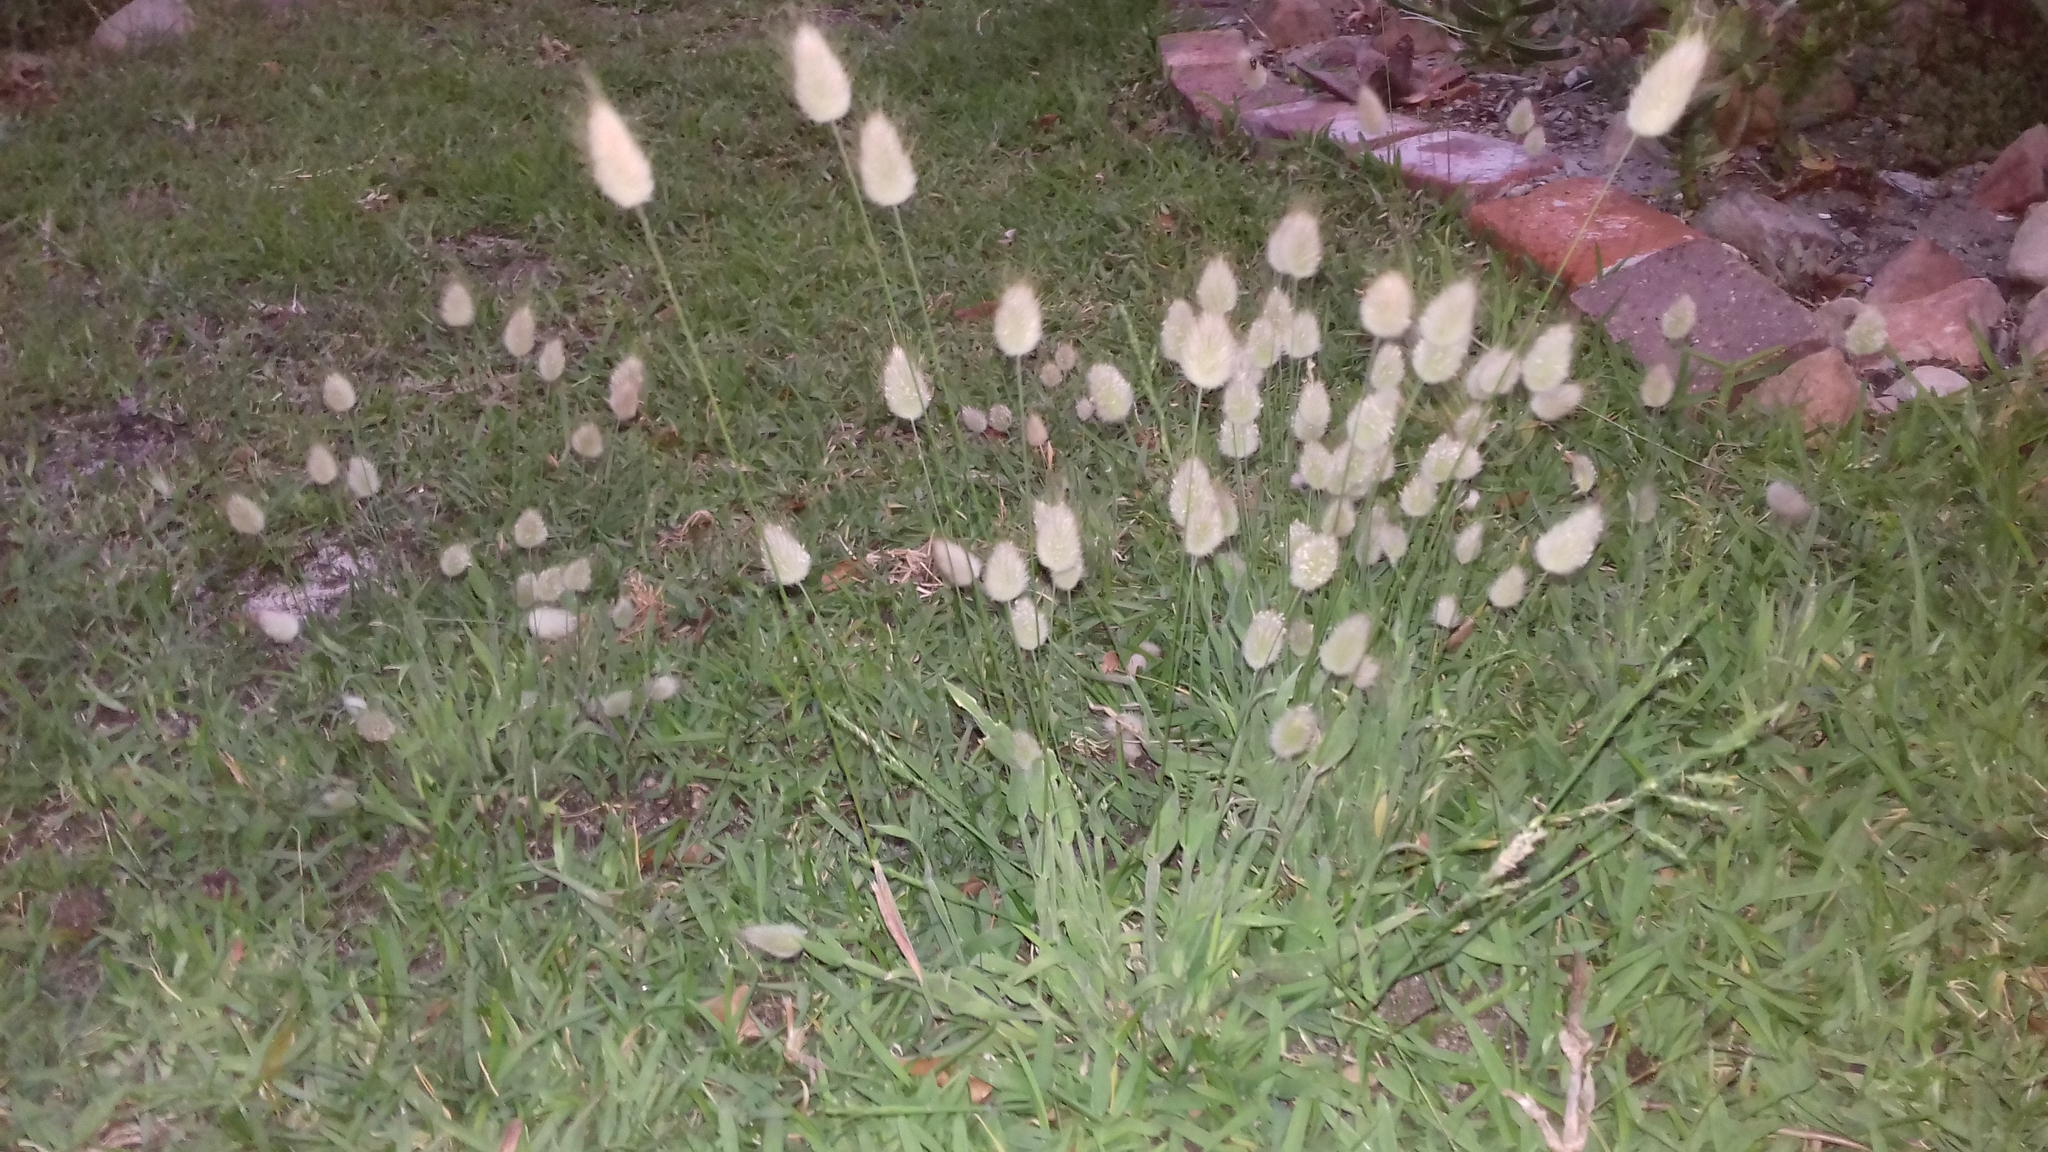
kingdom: Plantae
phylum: Tracheophyta
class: Liliopsida
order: Poales
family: Poaceae
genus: Lagurus
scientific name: Lagurus ovatus
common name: Hare's-tail
